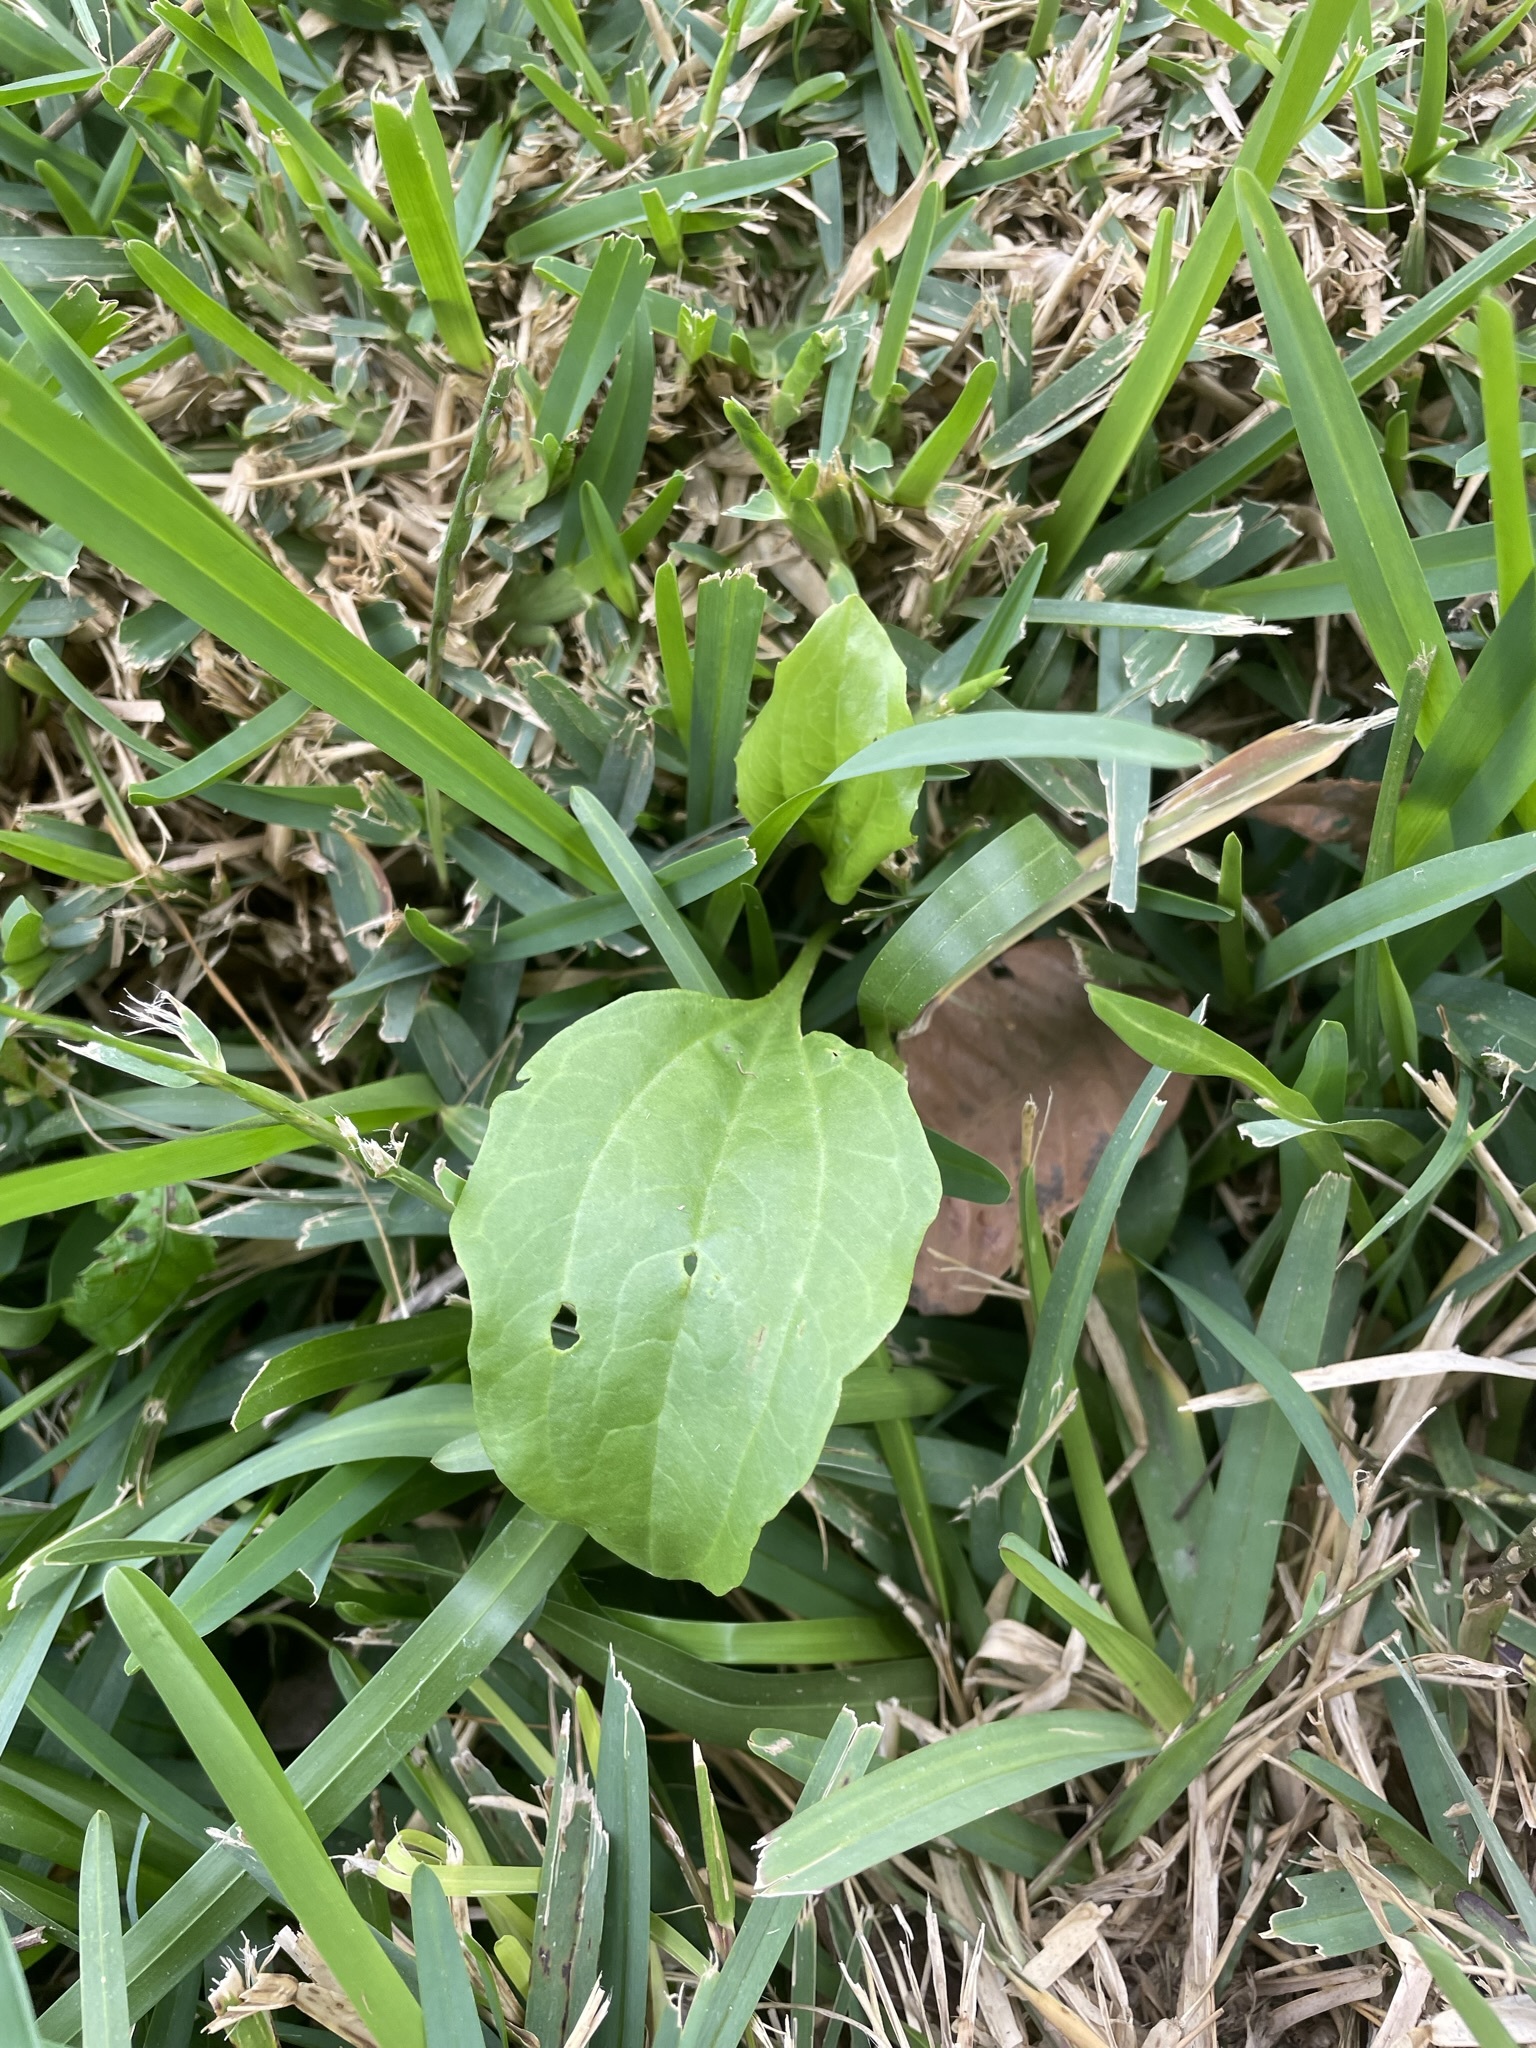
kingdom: Plantae
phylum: Tracheophyta
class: Magnoliopsida
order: Lamiales
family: Plantaginaceae
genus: Plantago
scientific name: Plantago major
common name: Common plantain
